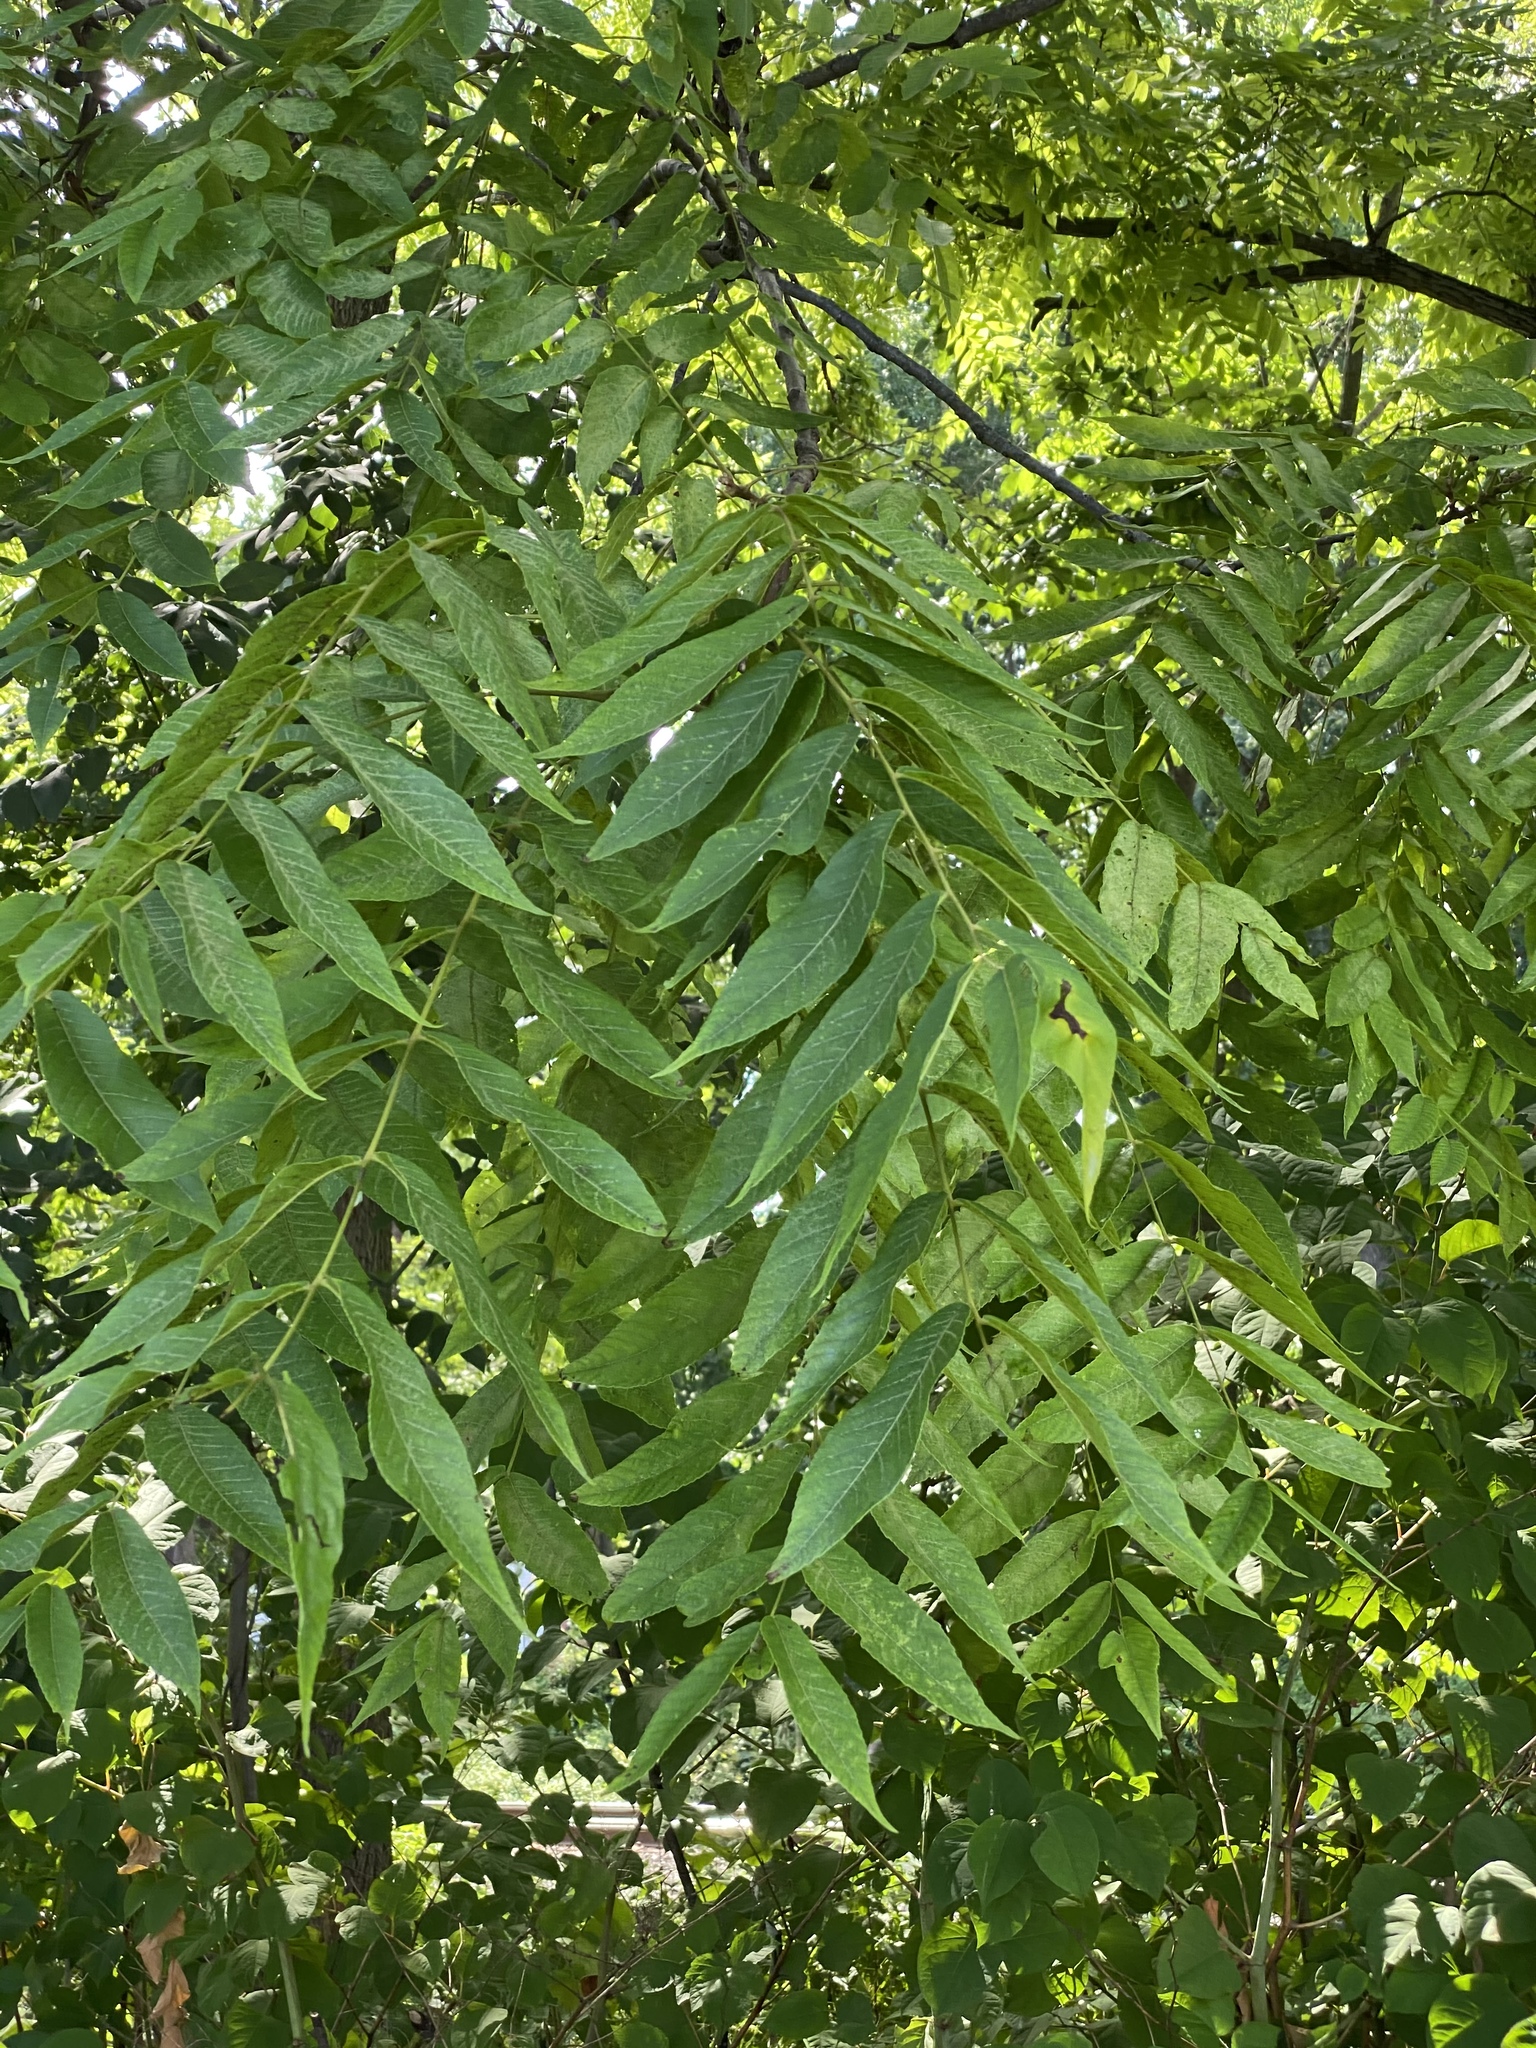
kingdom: Plantae
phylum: Tracheophyta
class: Magnoliopsida
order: Fagales
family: Juglandaceae
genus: Juglans
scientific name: Juglans nigra
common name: Black walnut
